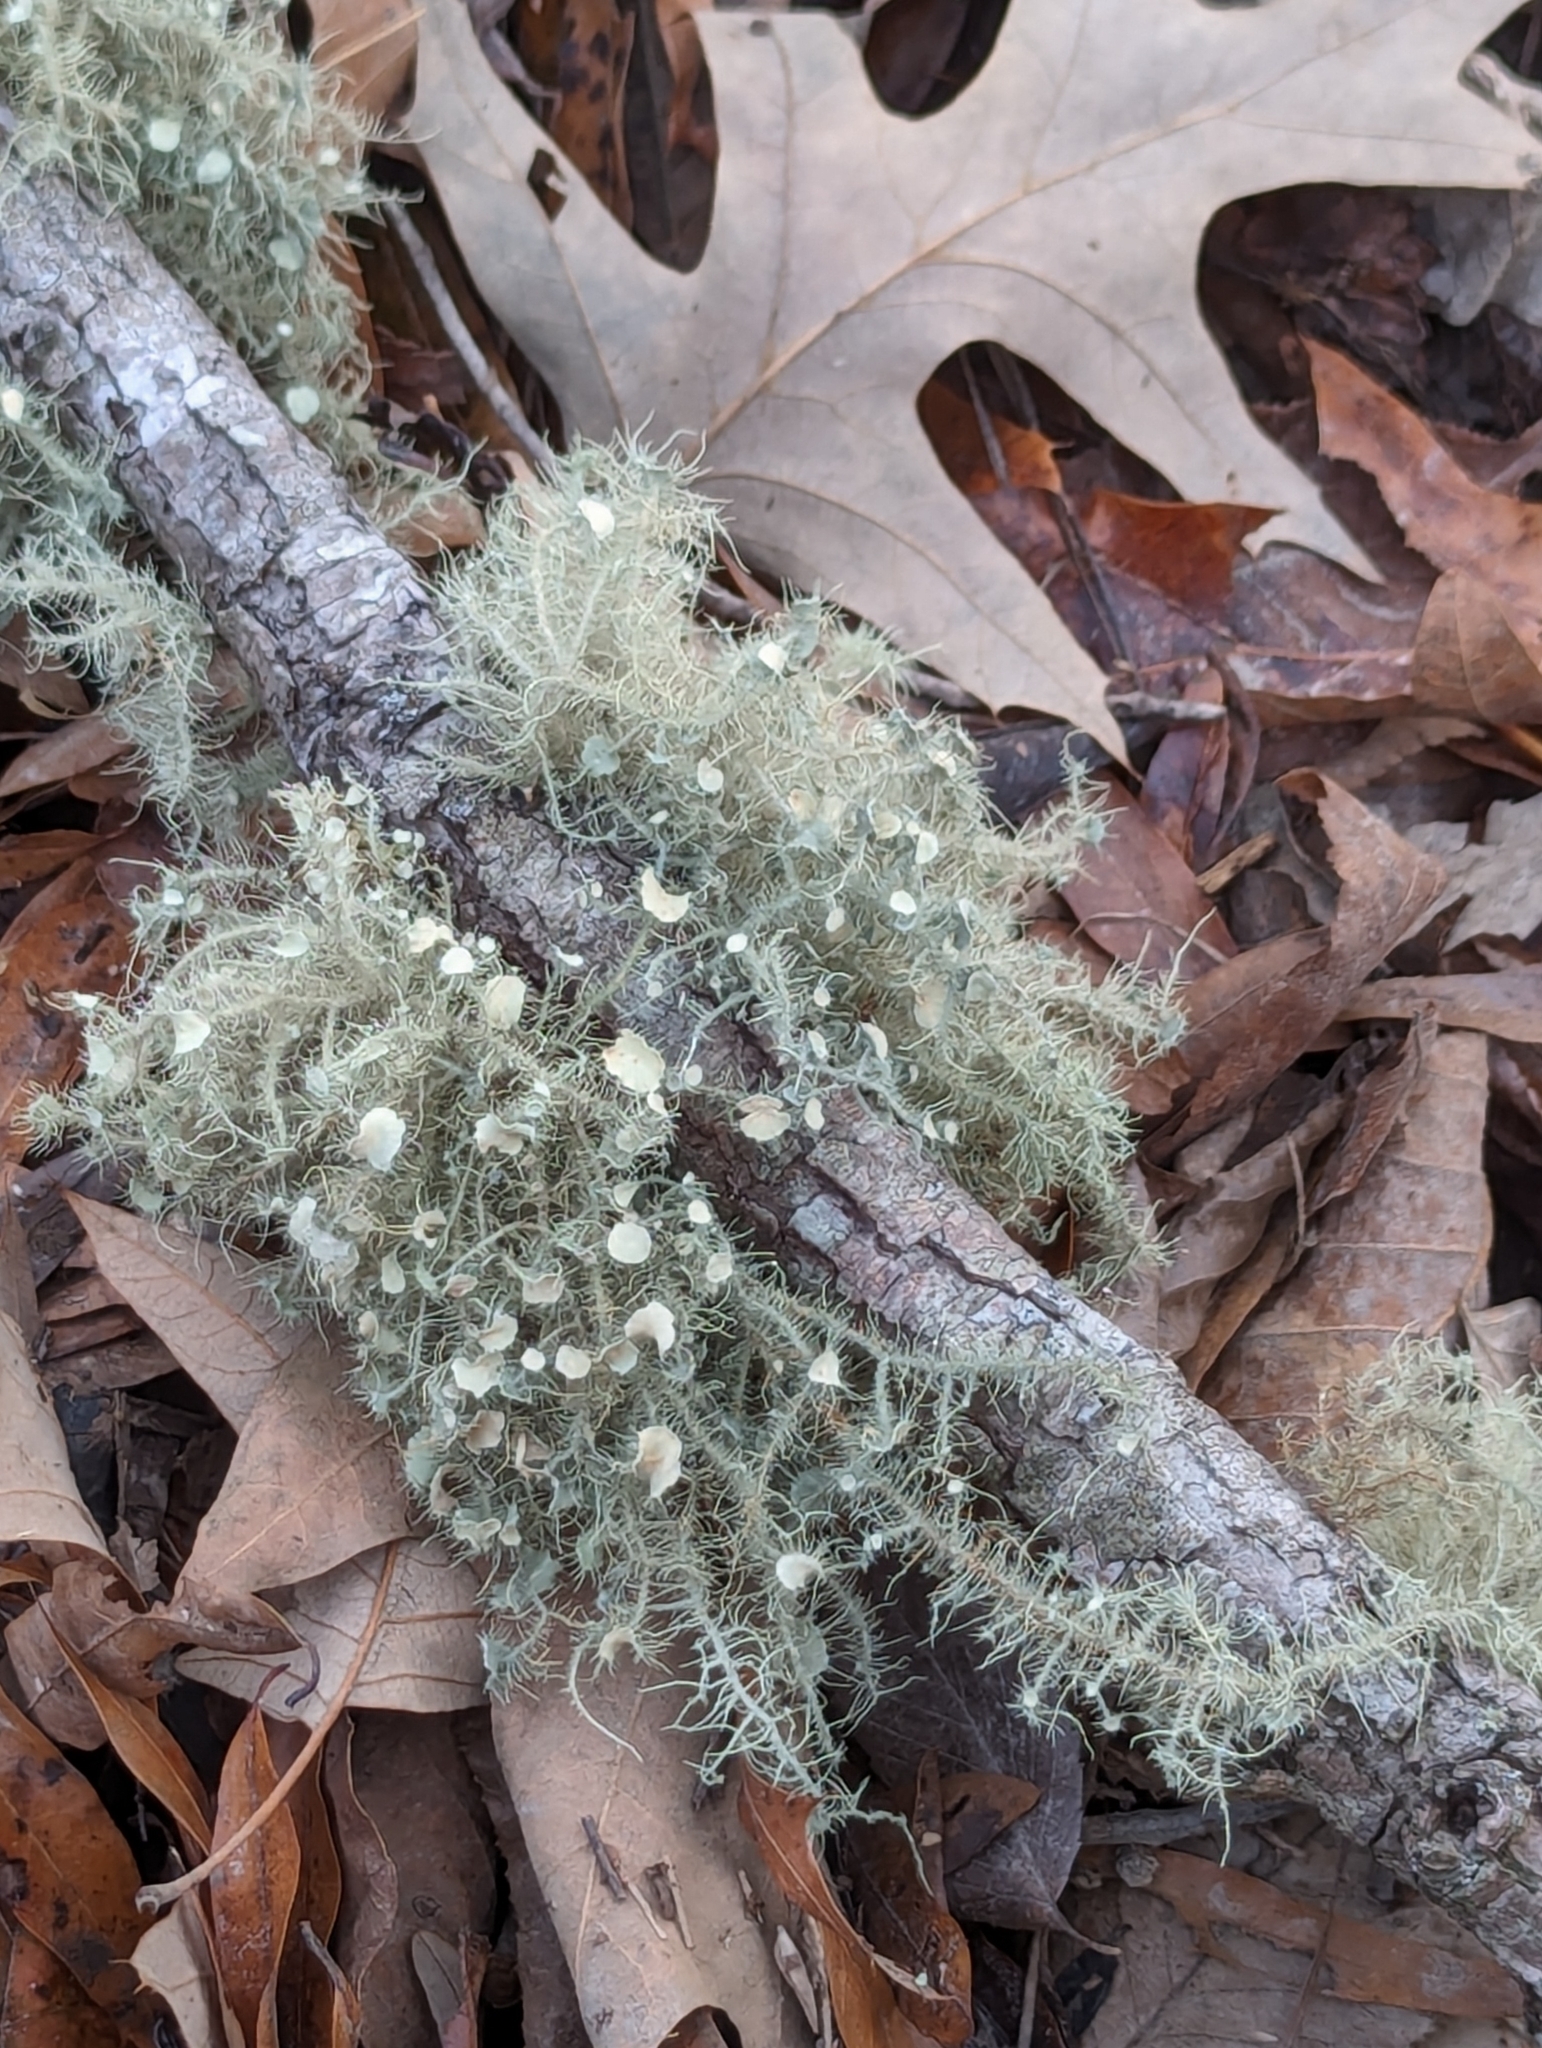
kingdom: Fungi
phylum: Ascomycota
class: Lecanoromycetes
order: Lecanorales
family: Parmeliaceae
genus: Usnea
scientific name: Usnea strigosa
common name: Bushy beard lichen
